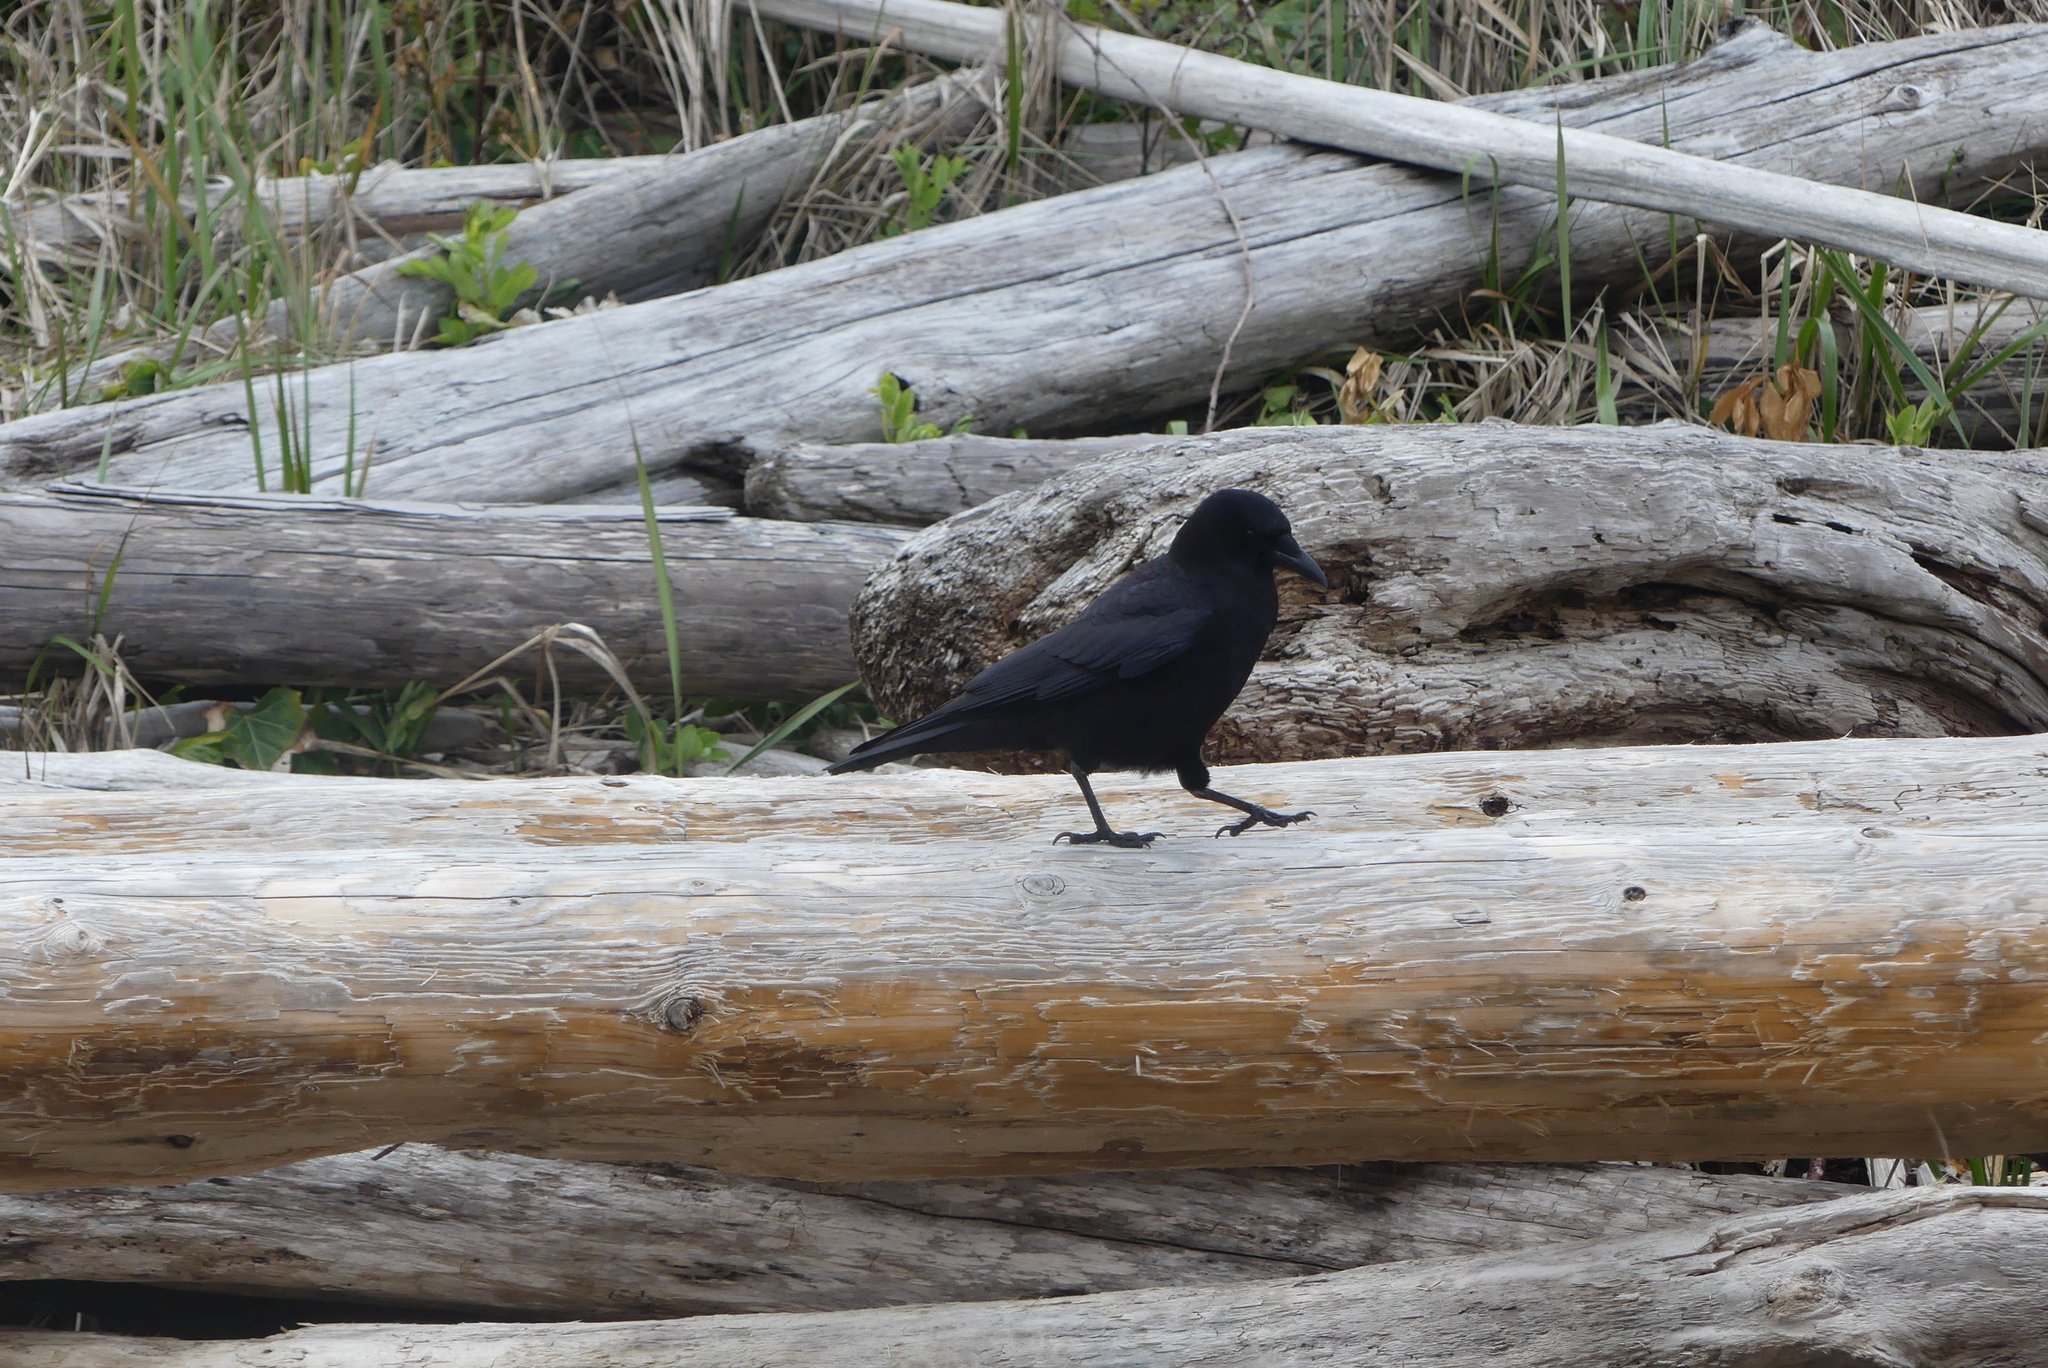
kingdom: Animalia
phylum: Chordata
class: Aves
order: Passeriformes
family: Corvidae
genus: Corvus
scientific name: Corvus brachyrhynchos
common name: American crow
